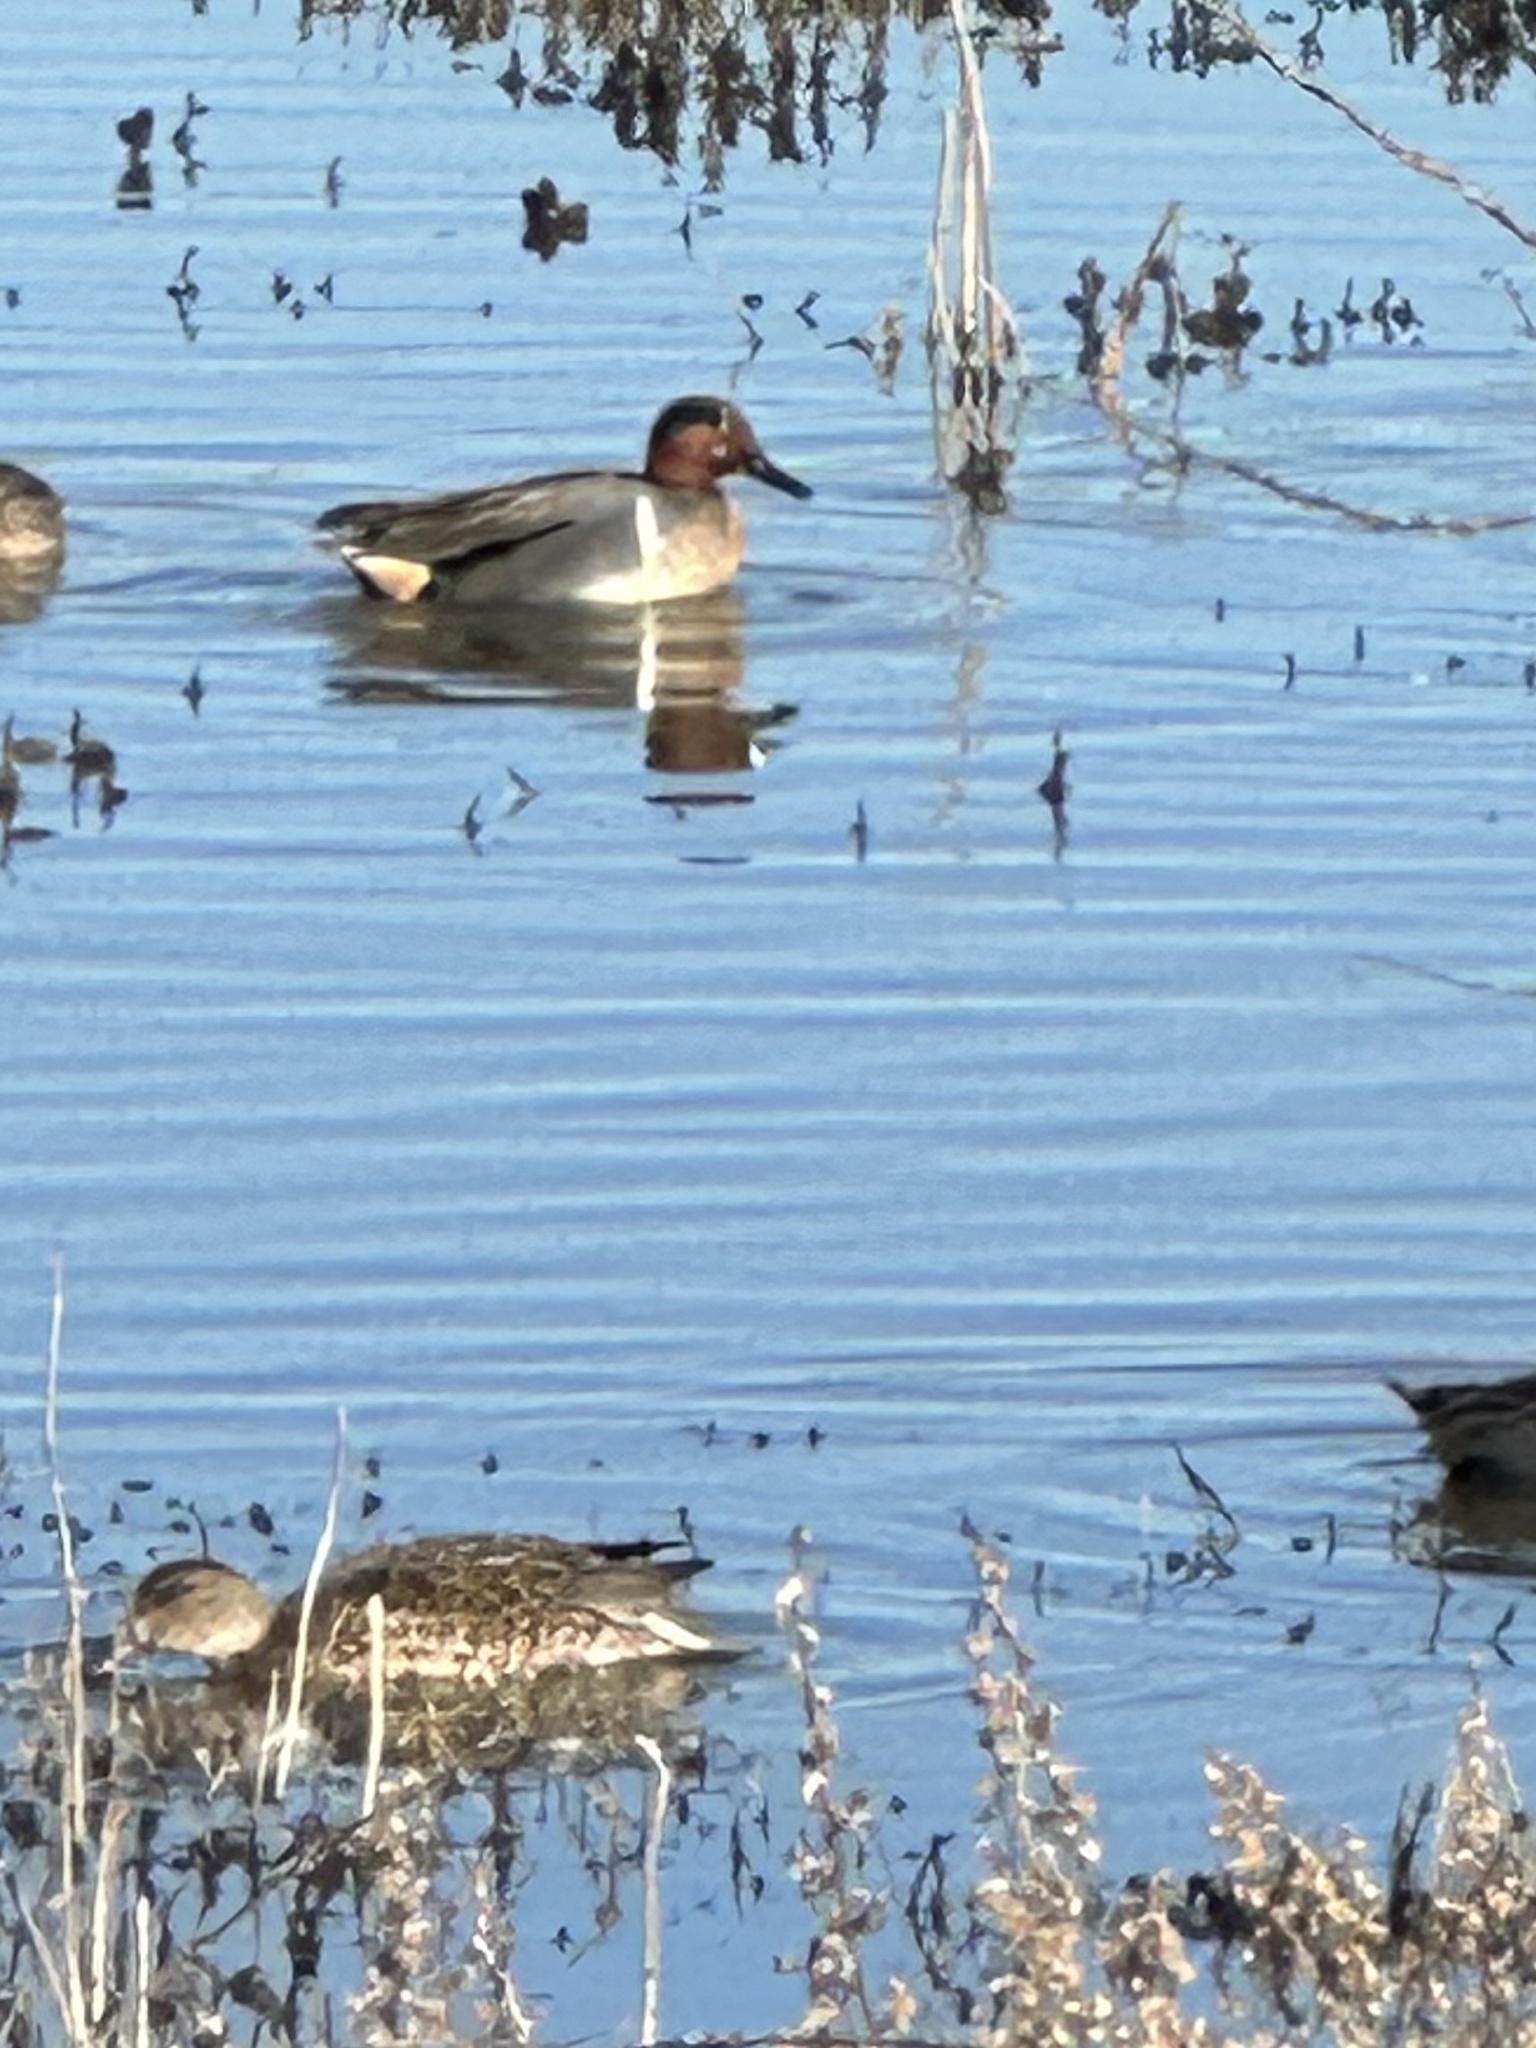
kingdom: Animalia
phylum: Chordata
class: Aves
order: Anseriformes
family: Anatidae
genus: Anas
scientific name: Anas crecca
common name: Eurasian teal
